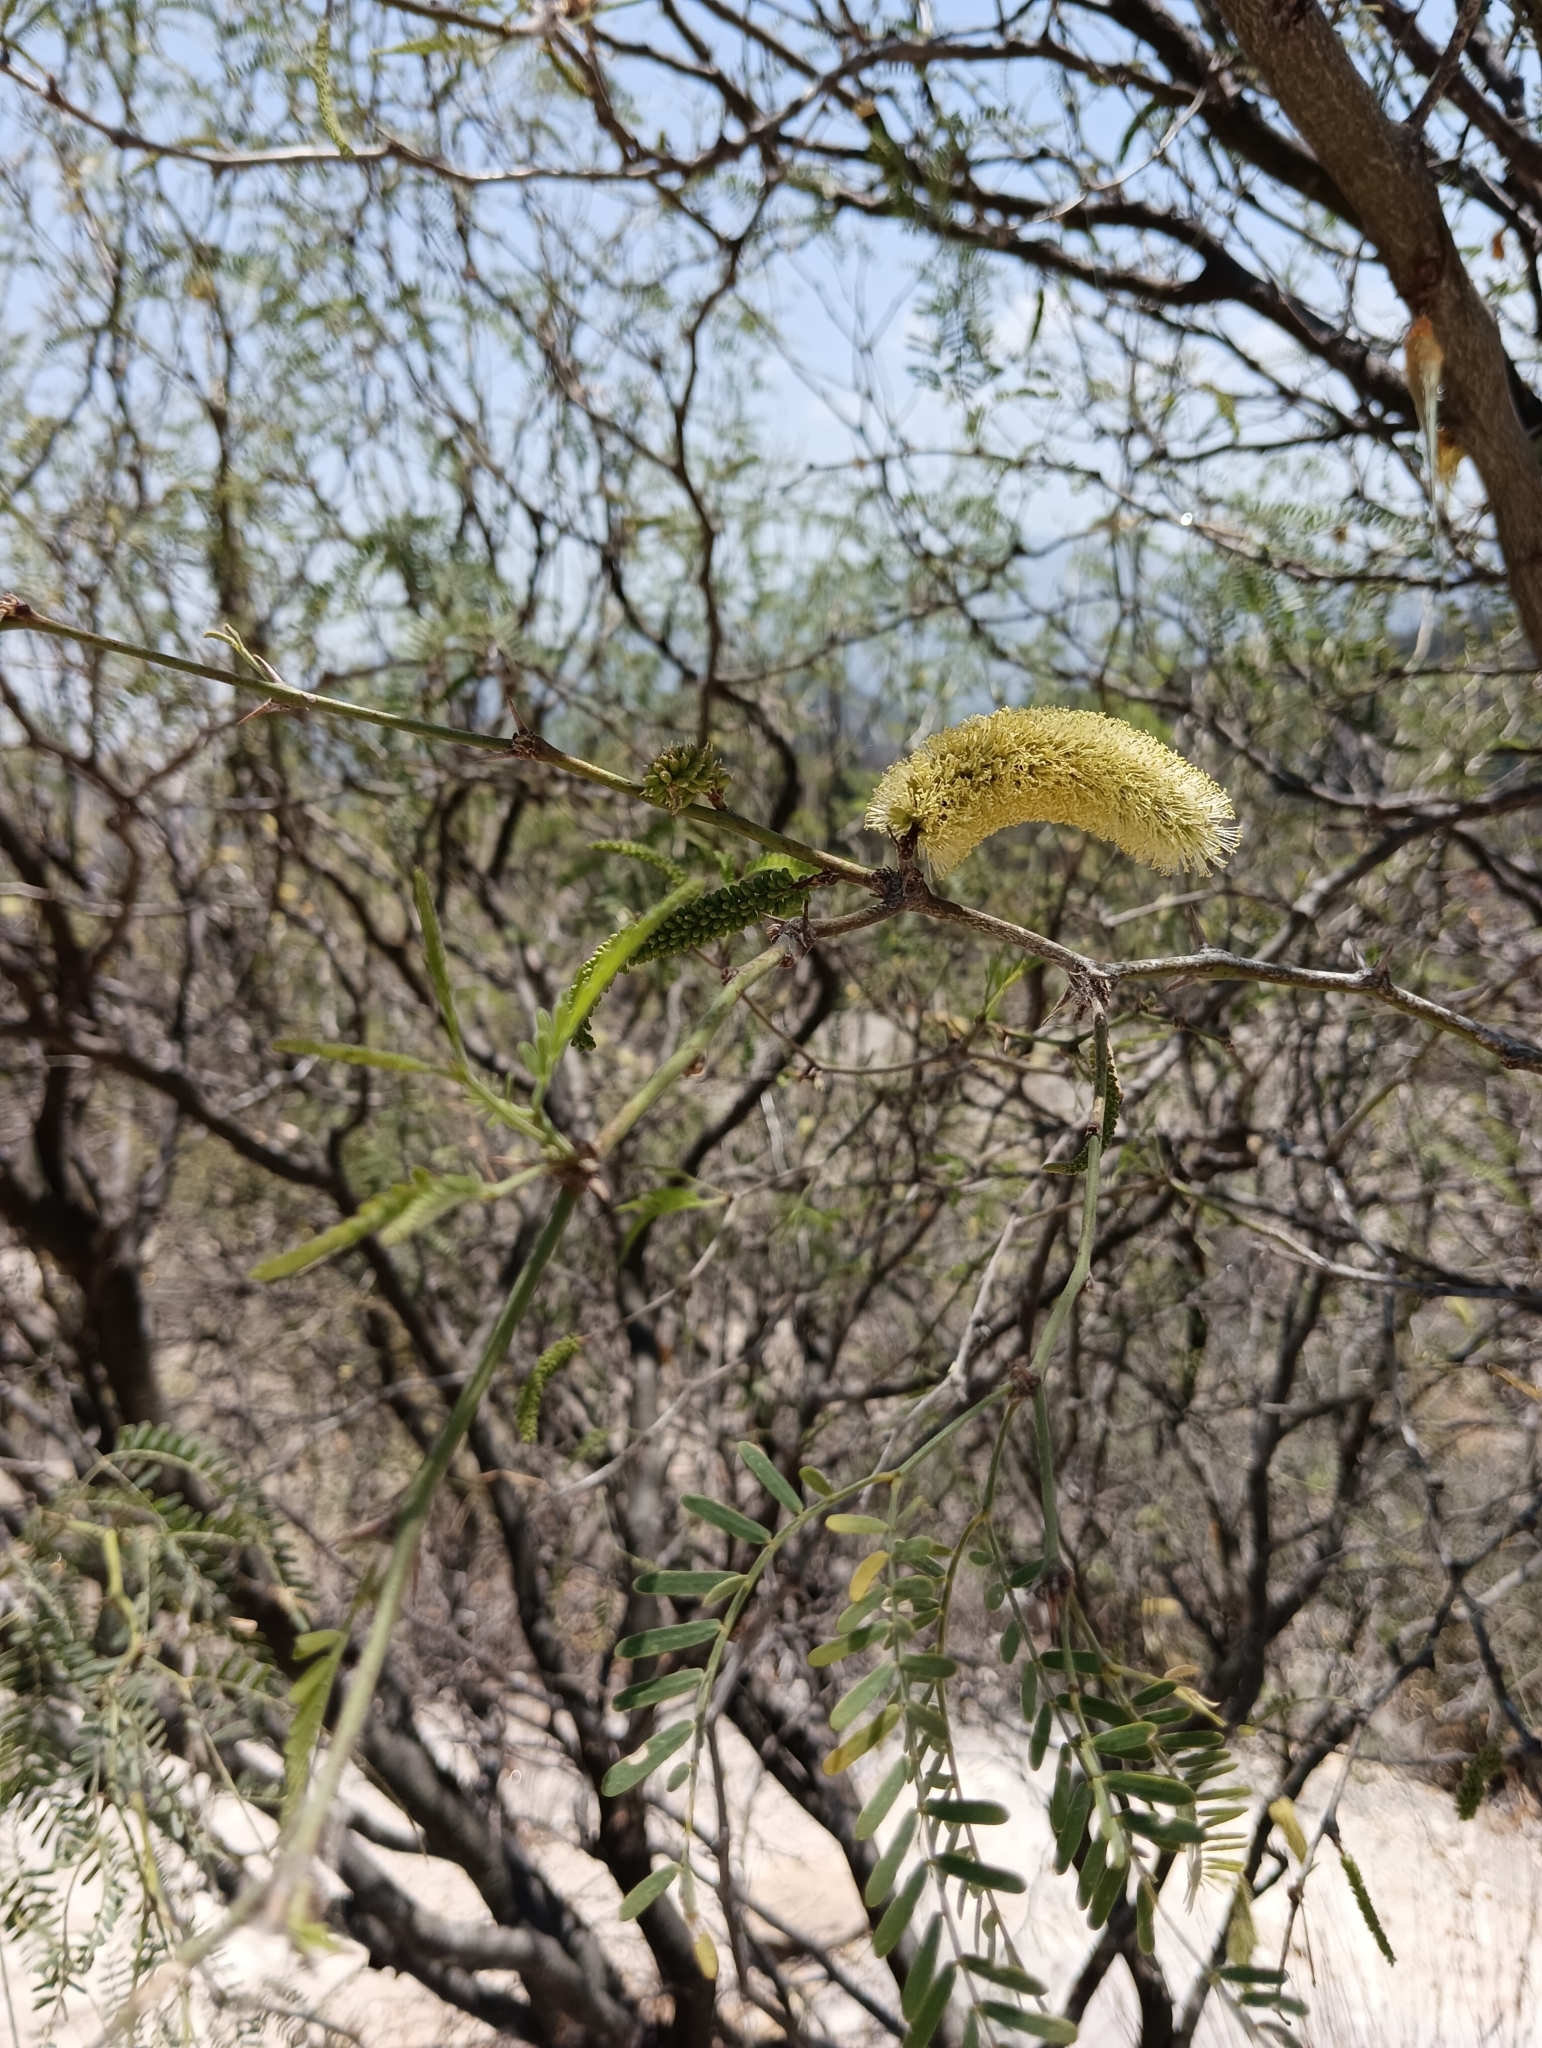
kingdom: Plantae
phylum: Tracheophyta
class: Magnoliopsida
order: Fabales
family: Fabaceae
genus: Prosopis
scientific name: Prosopis laevigata
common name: Smooth mesquite
